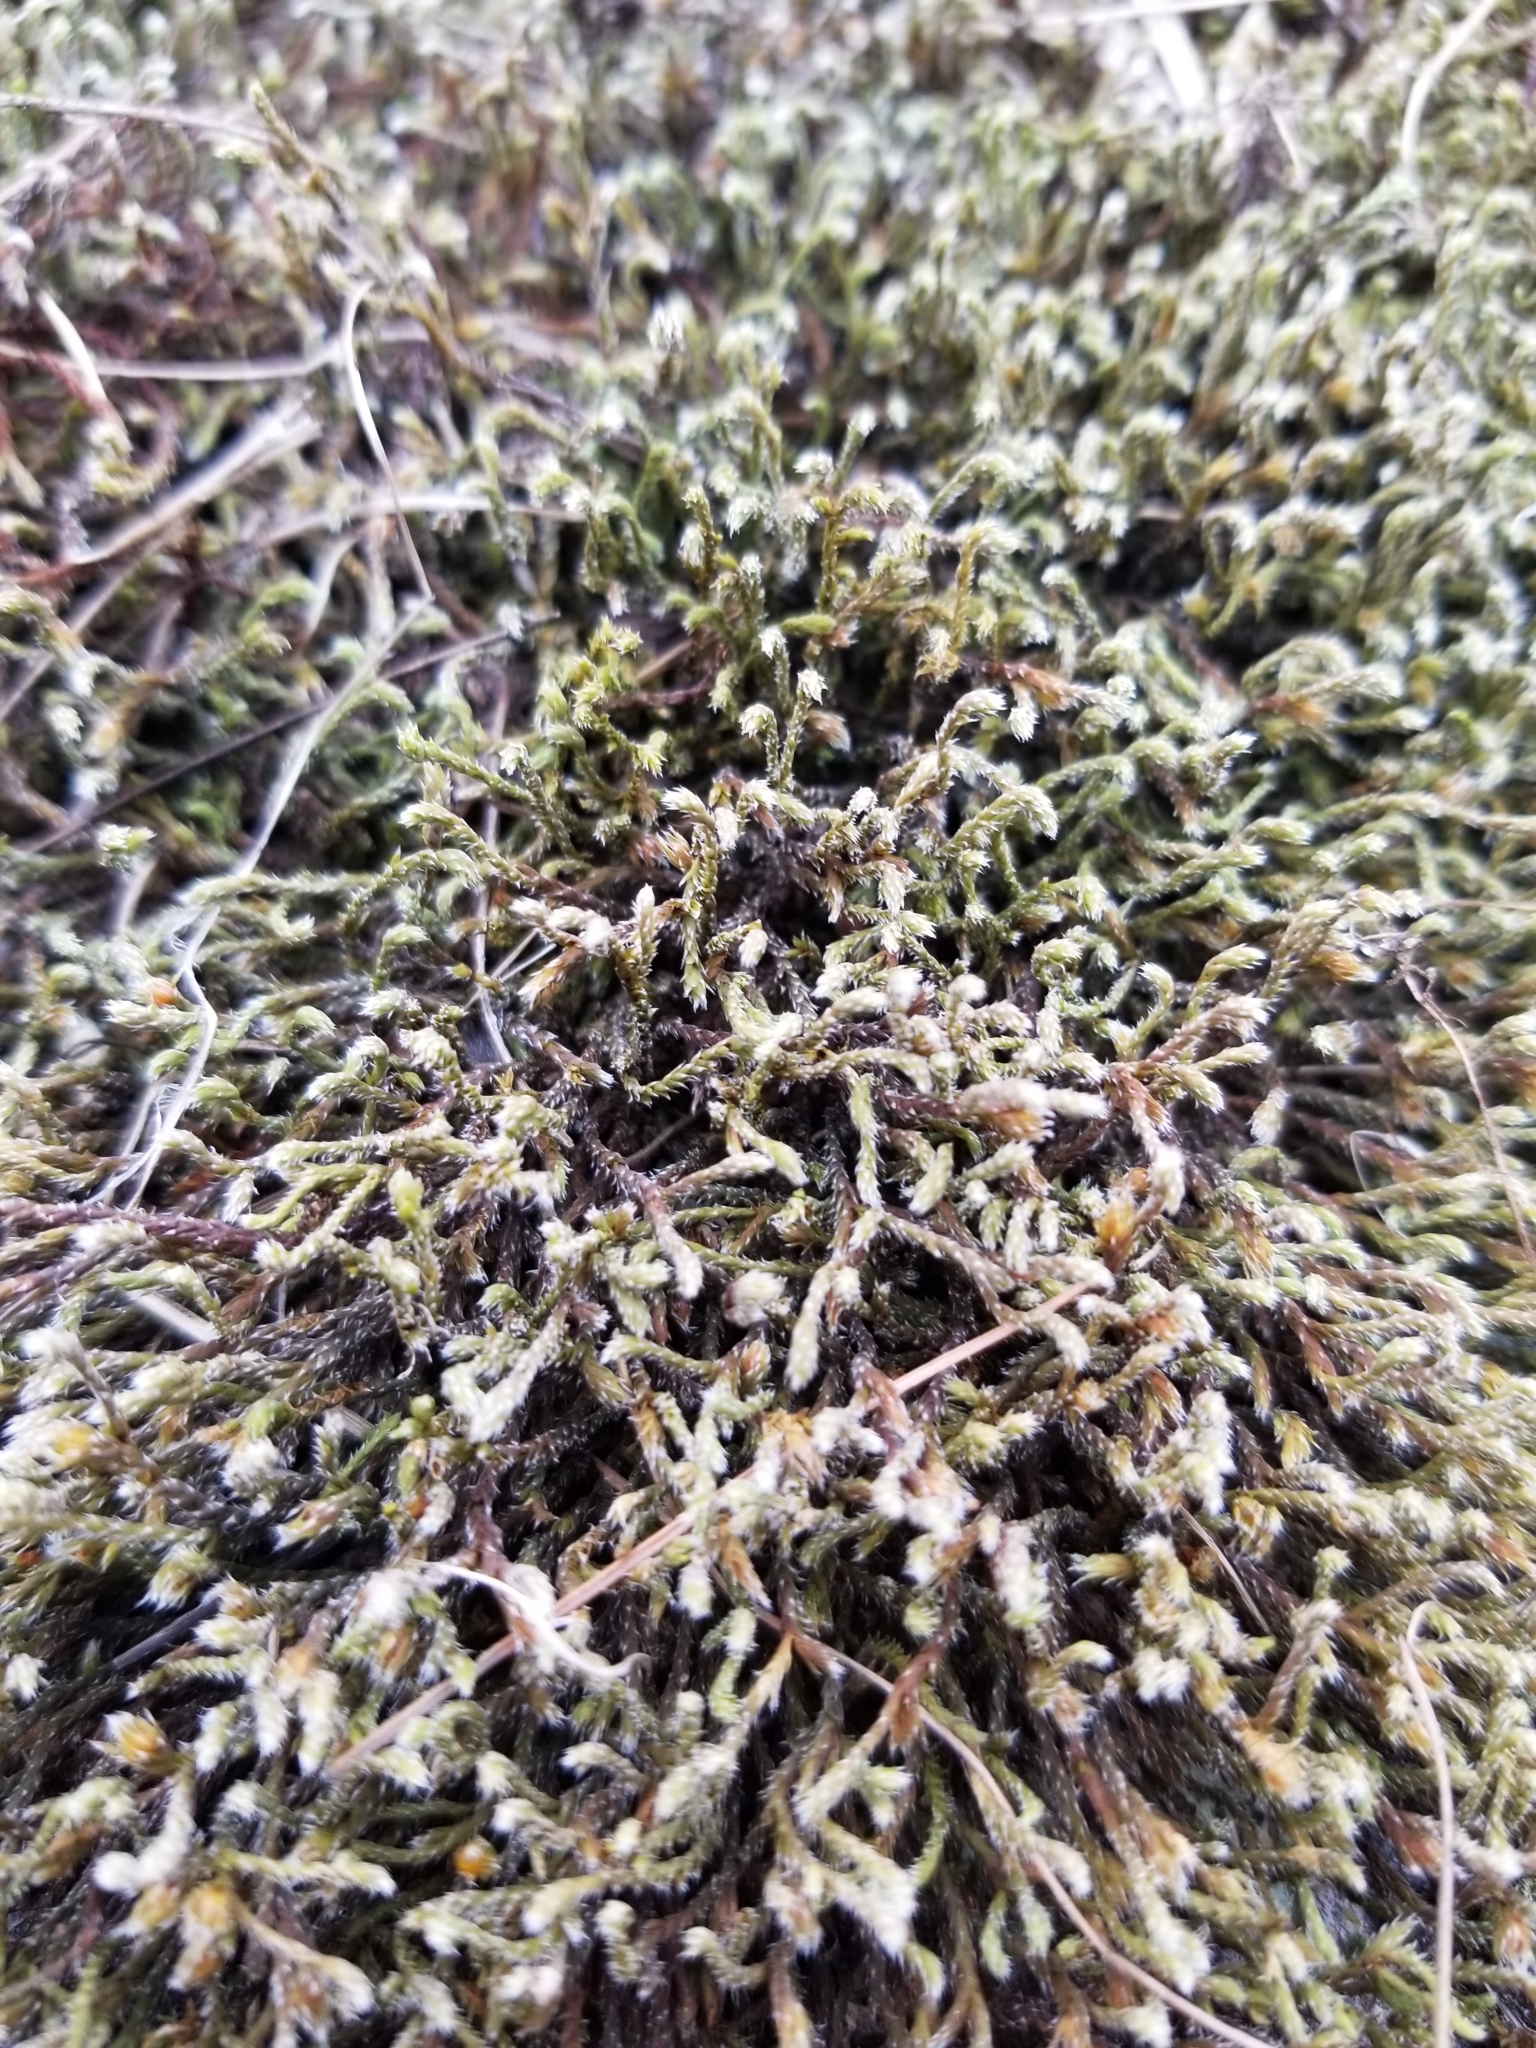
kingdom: Plantae
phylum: Bryophyta
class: Bryopsida
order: Hedwigiales
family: Hedwigiaceae
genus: Hedwigia
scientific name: Hedwigia ciliata
